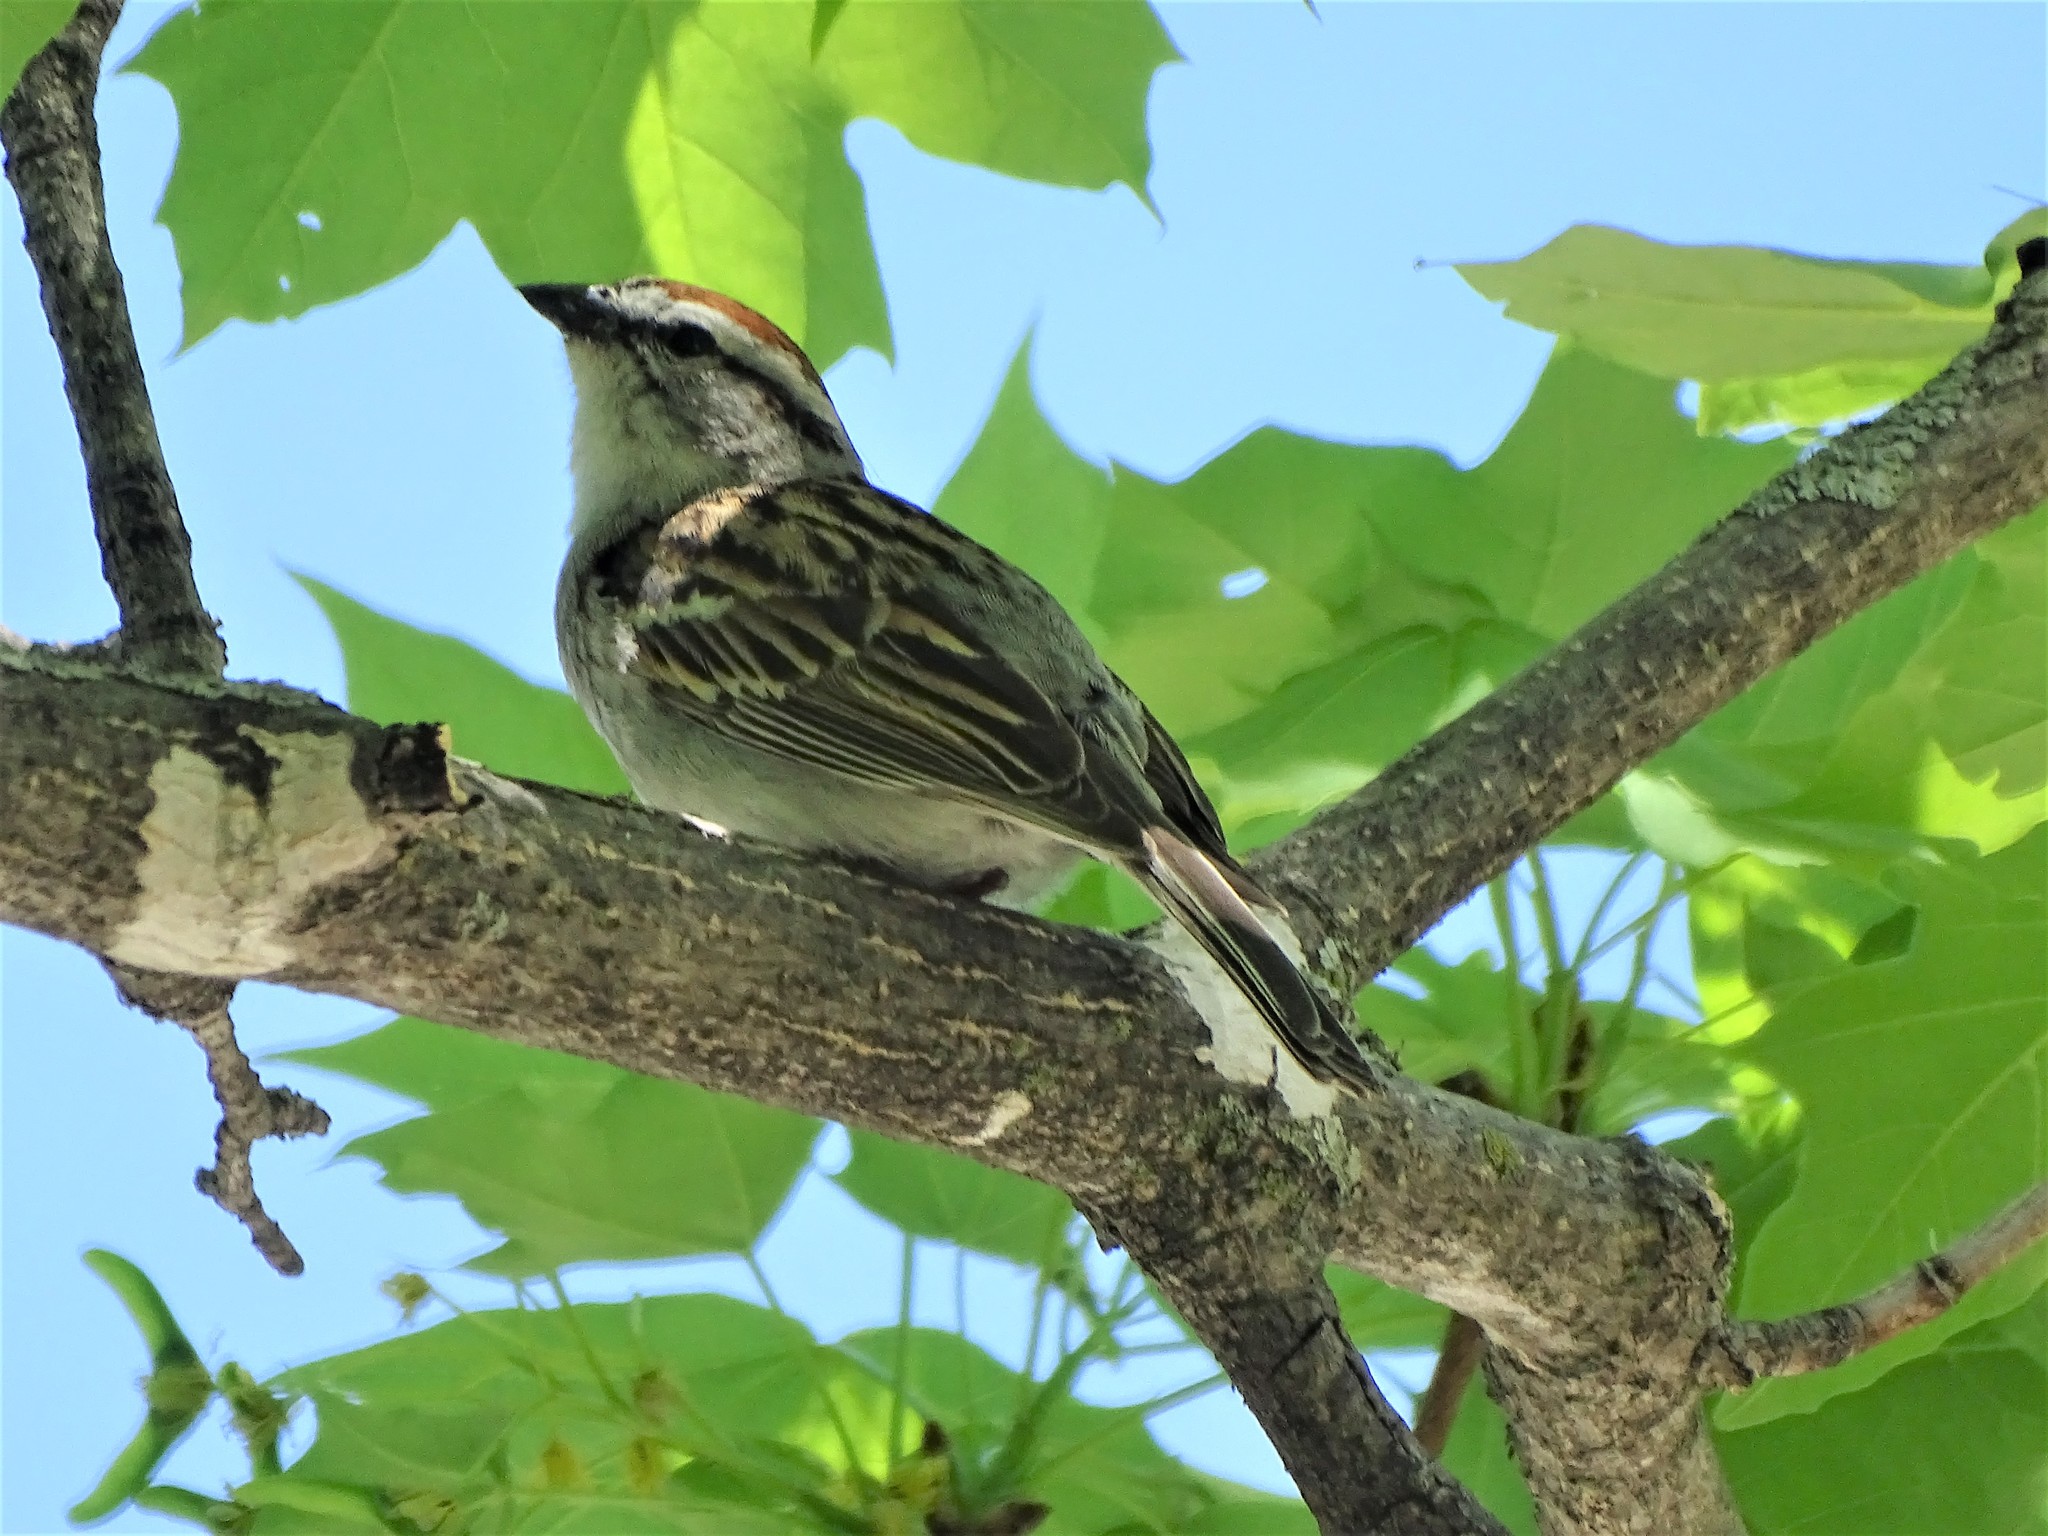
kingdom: Animalia
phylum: Chordata
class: Aves
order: Passeriformes
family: Passerellidae
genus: Spizella
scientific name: Spizella passerina
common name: Chipping sparrow
